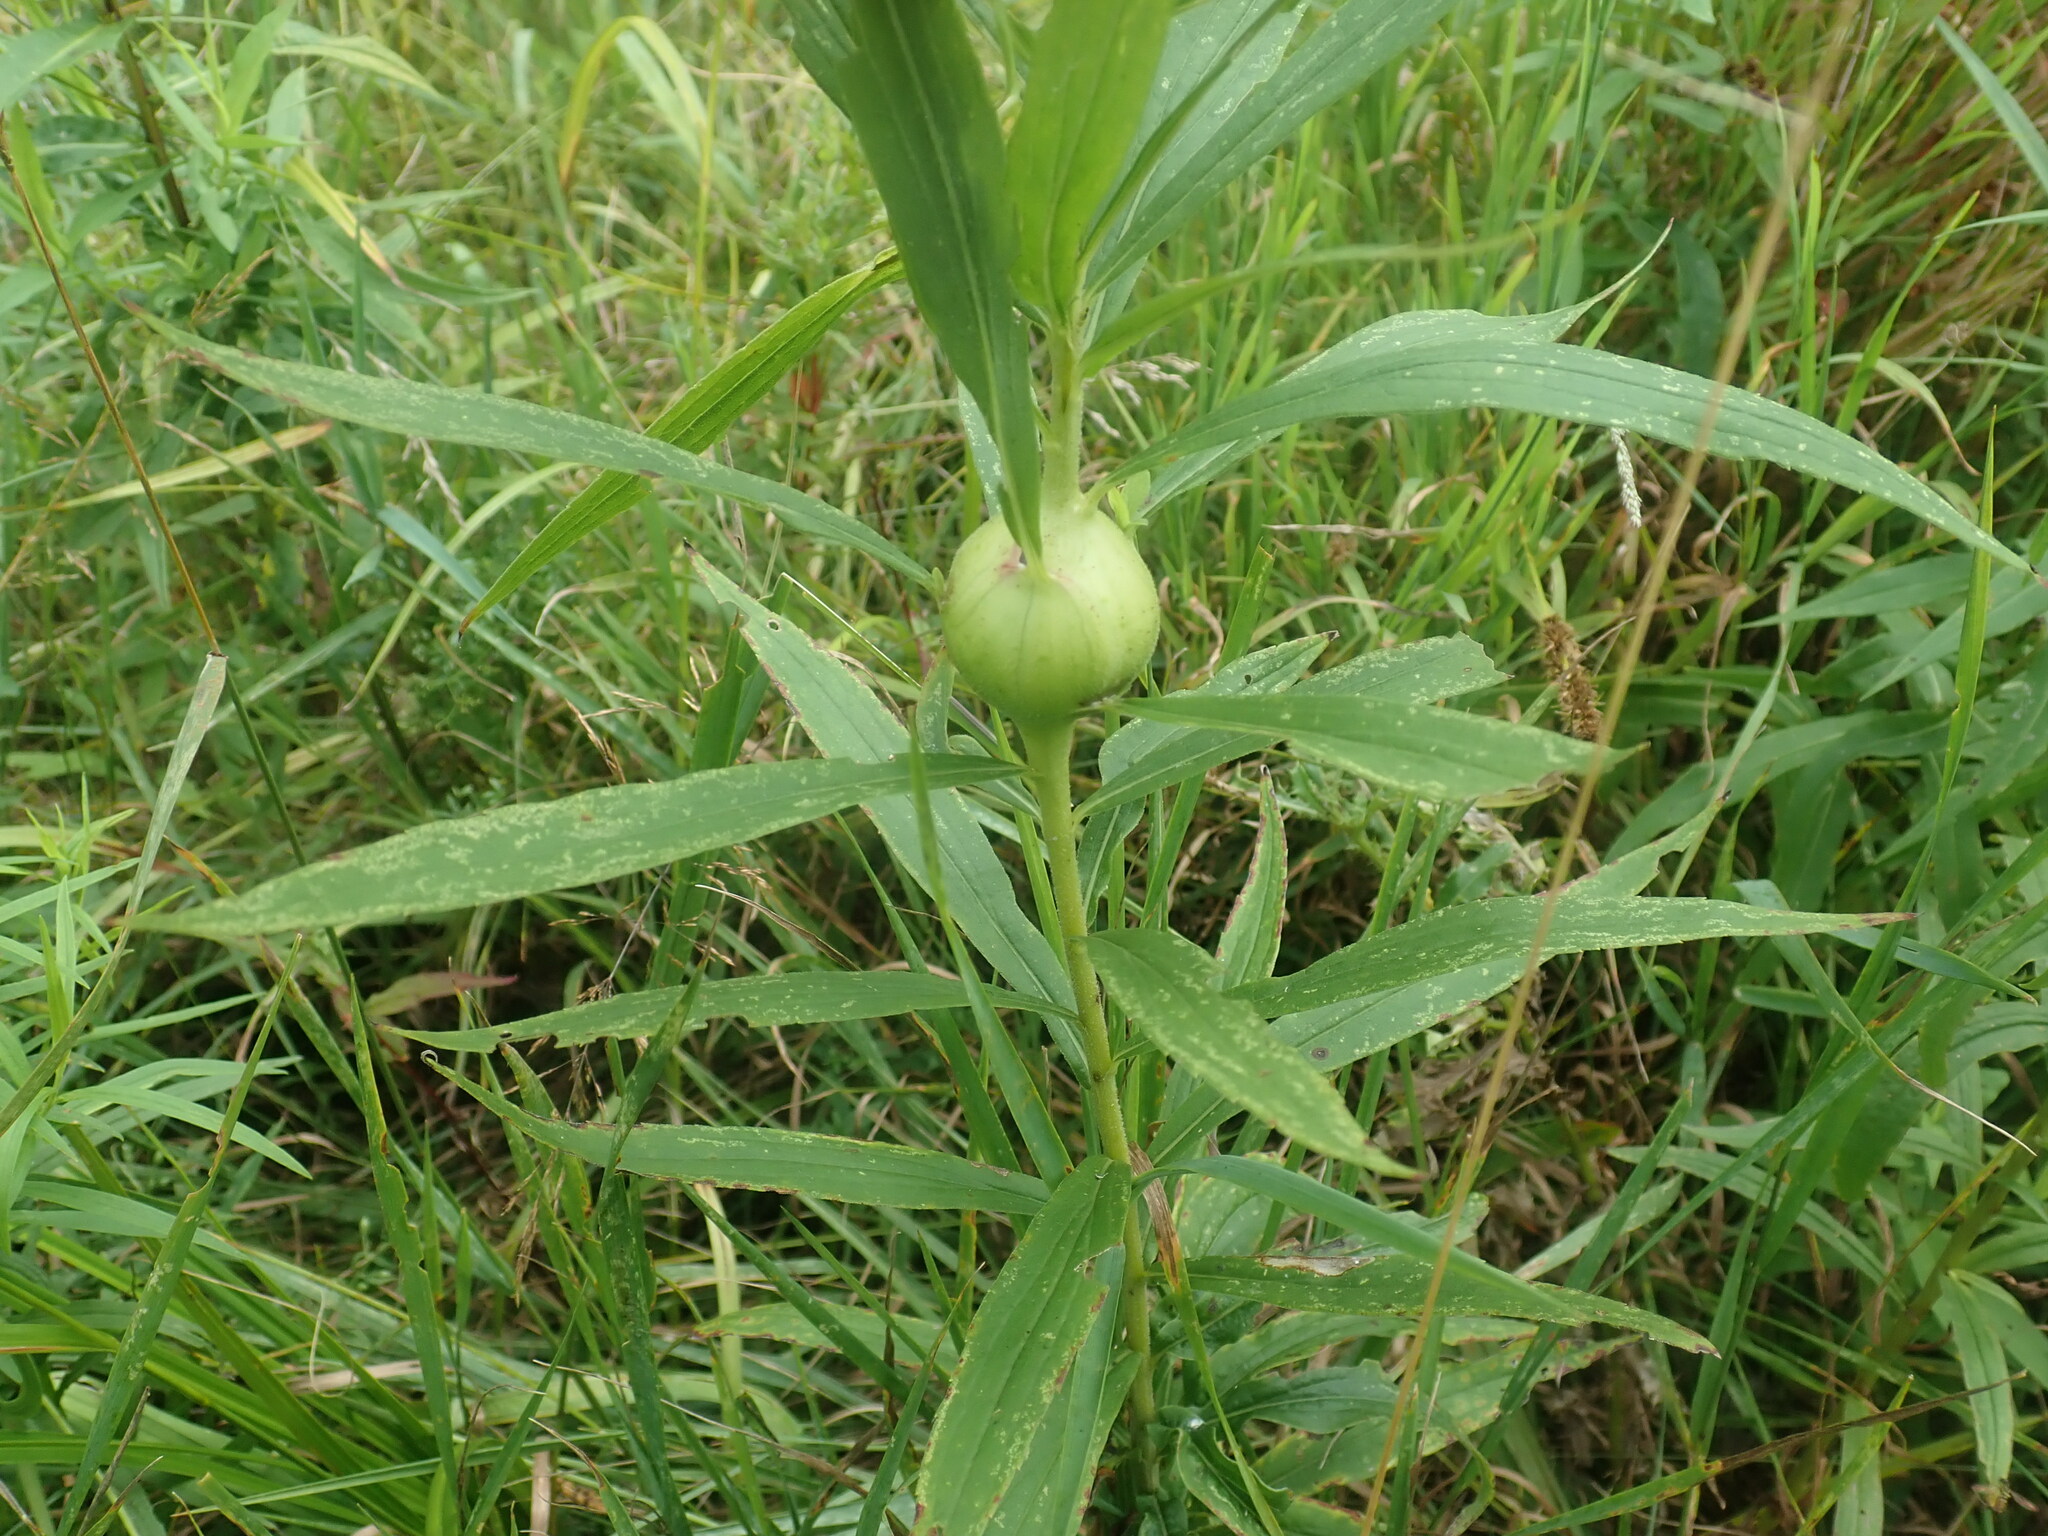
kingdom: Animalia
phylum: Arthropoda
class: Insecta
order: Diptera
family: Tephritidae
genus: Eurosta
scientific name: Eurosta solidaginis
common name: Goldenrod gall fly
